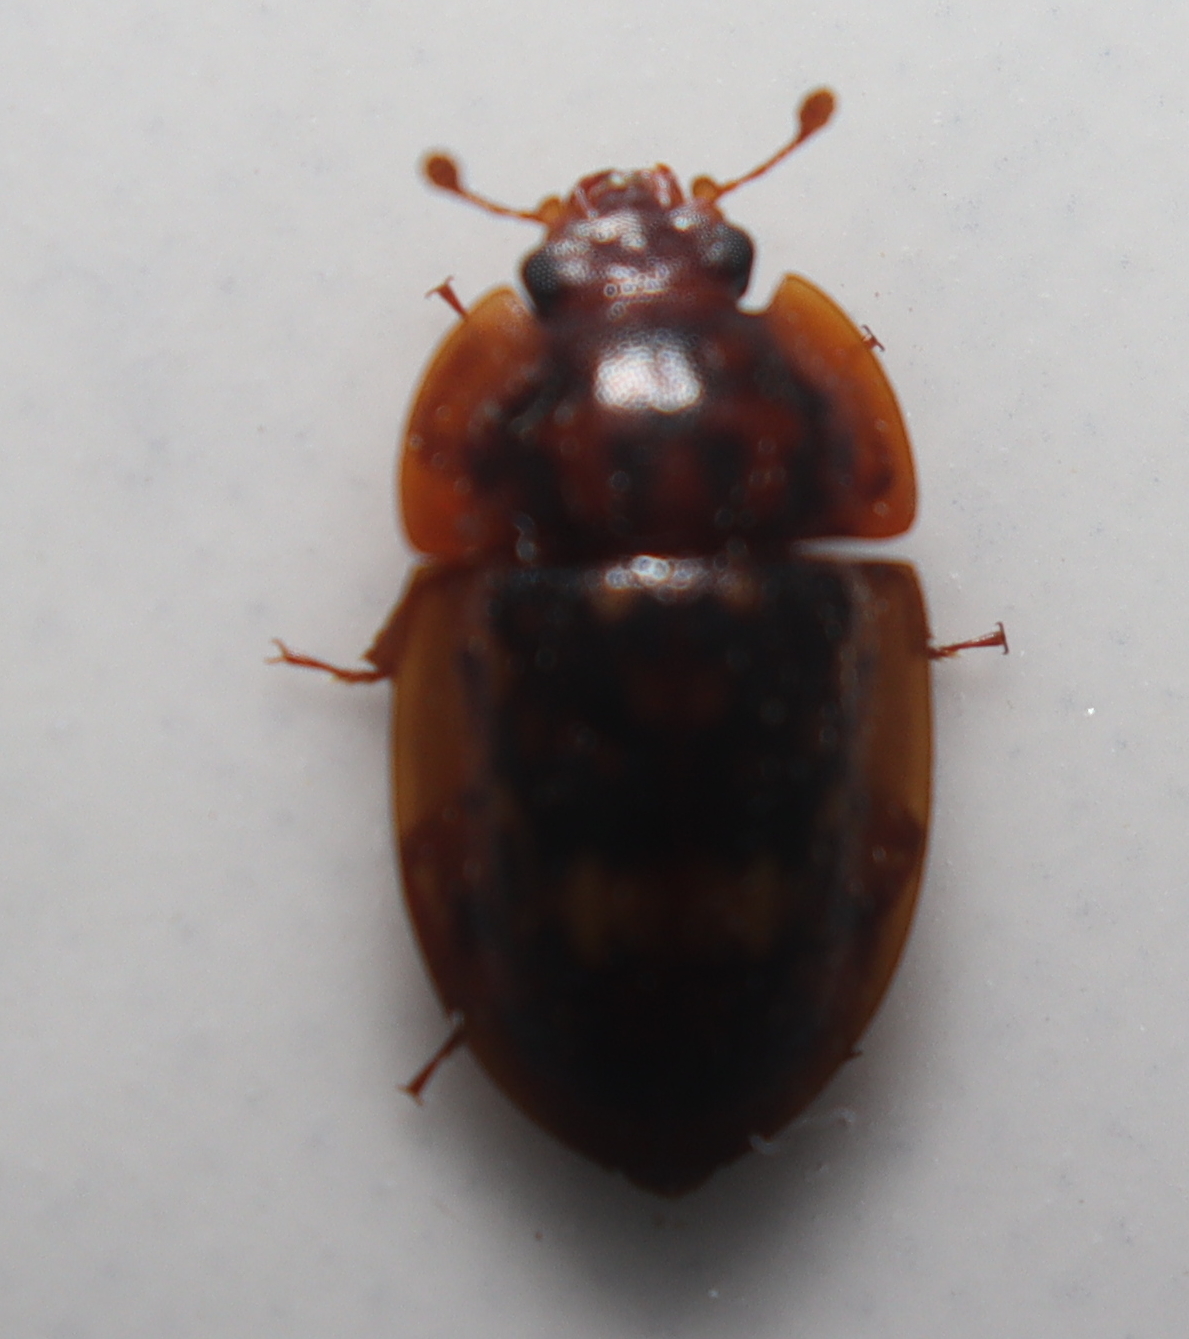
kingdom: Animalia
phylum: Arthropoda
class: Insecta
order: Coleoptera
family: Nitidulidae
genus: Lobiopa
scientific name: Lobiopa insularis
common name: Sap beetle
